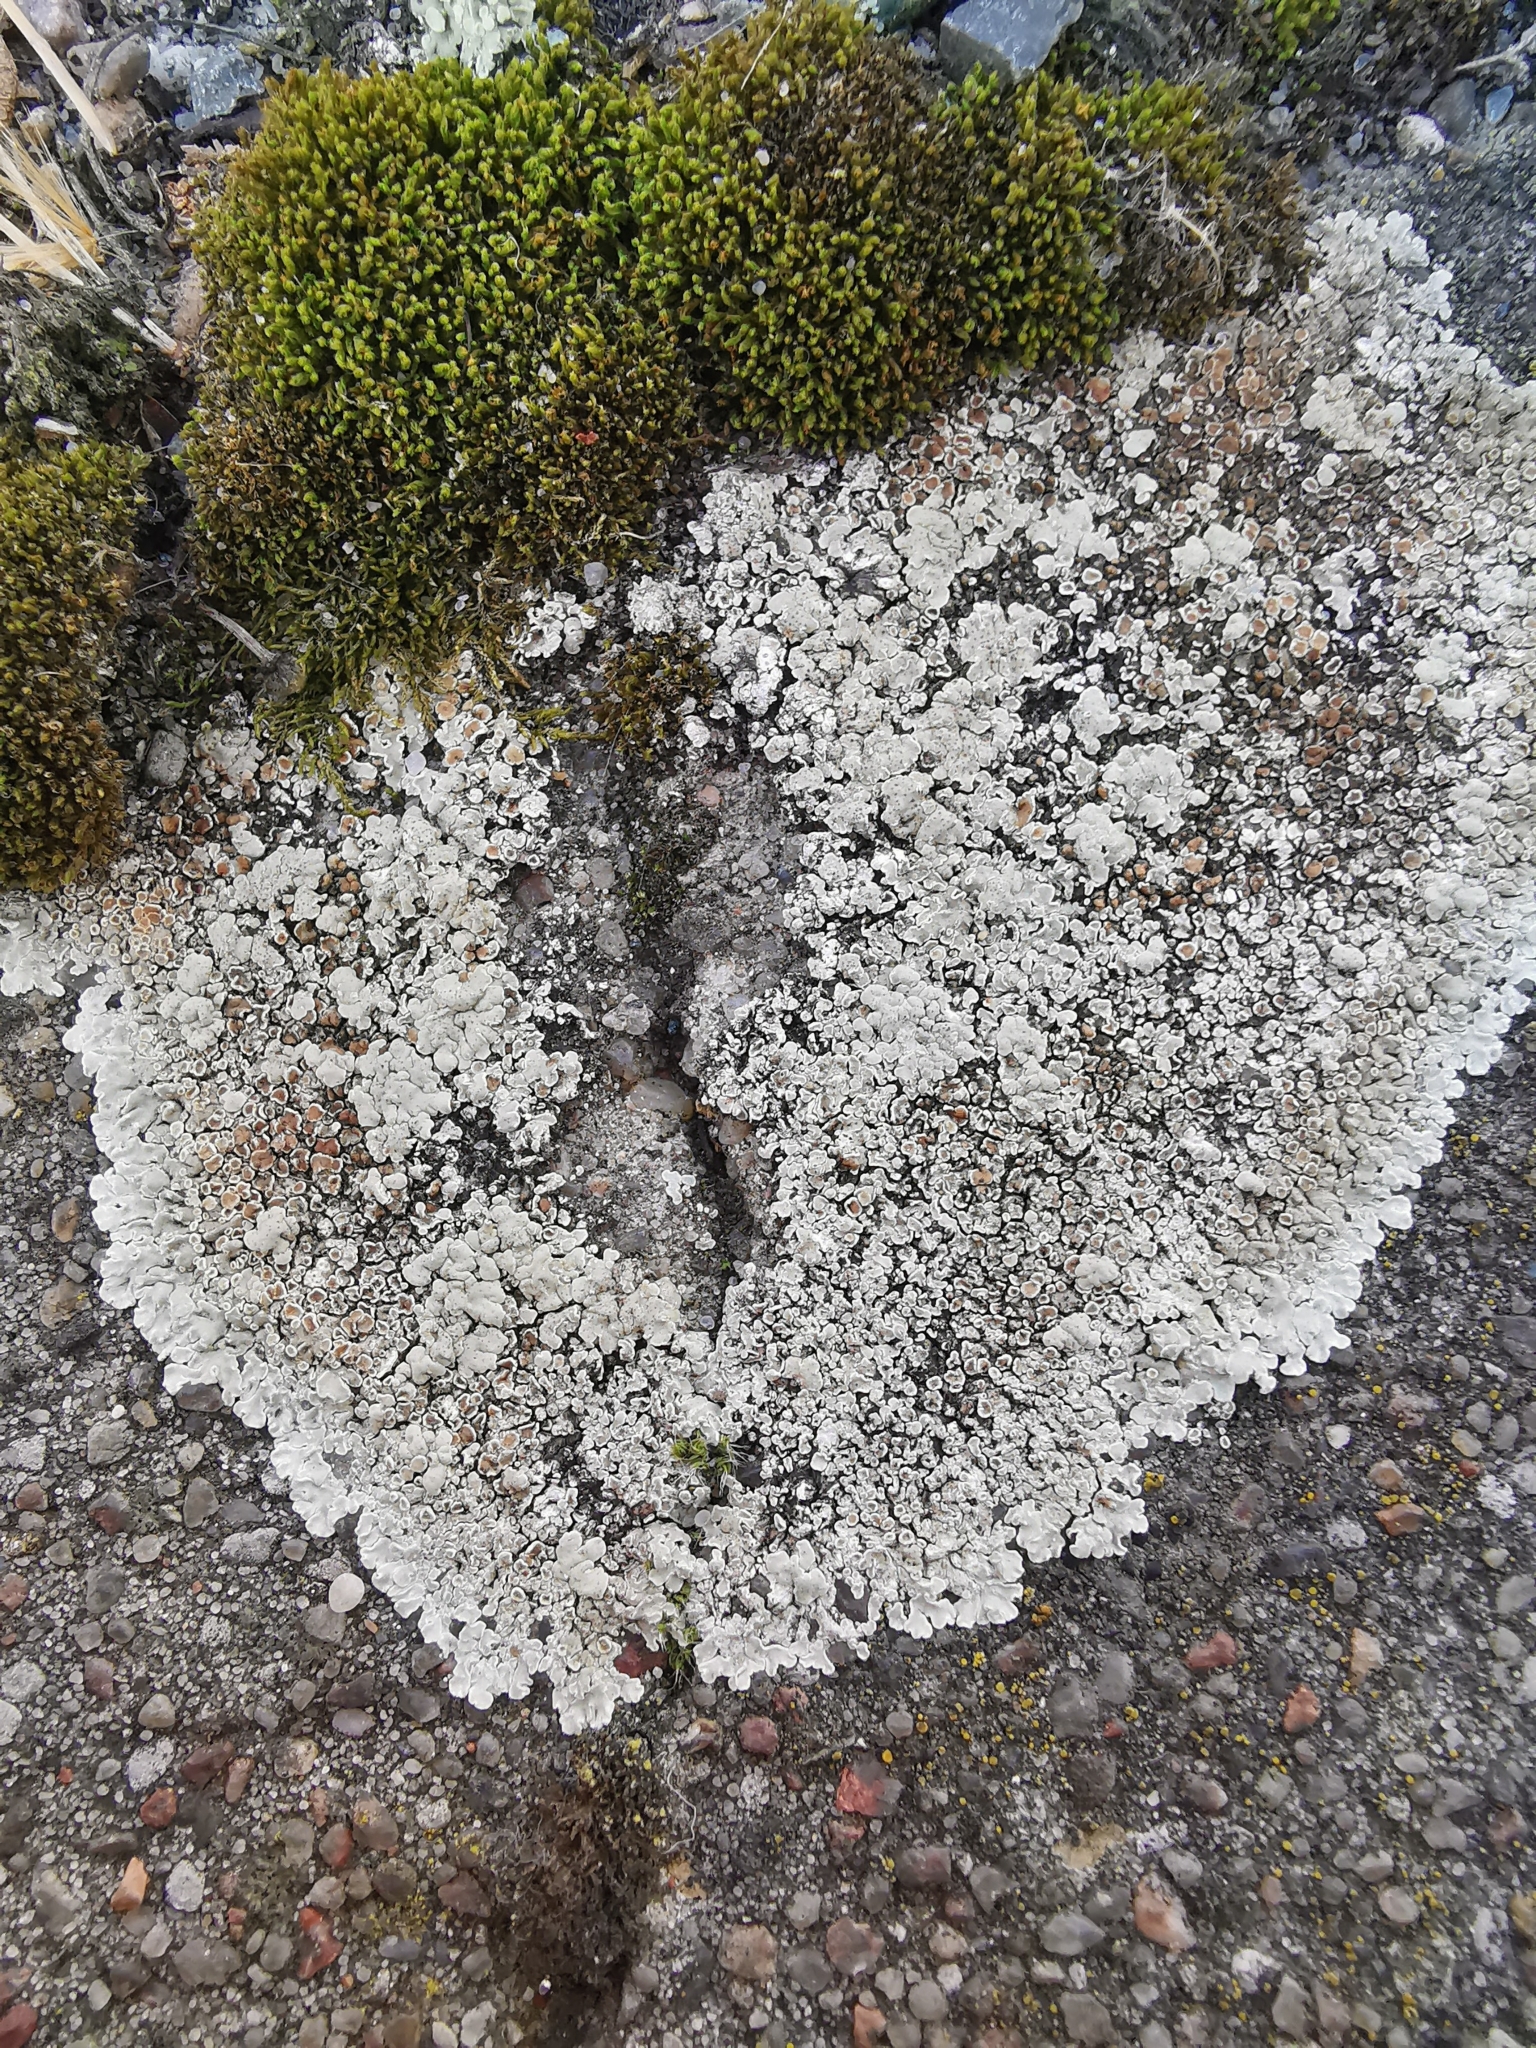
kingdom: Fungi
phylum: Ascomycota
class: Lecanoromycetes
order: Lecanorales
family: Lecanoraceae
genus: Protoparmeliopsis
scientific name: Protoparmeliopsis muralis
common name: Stonewall rim lichen
